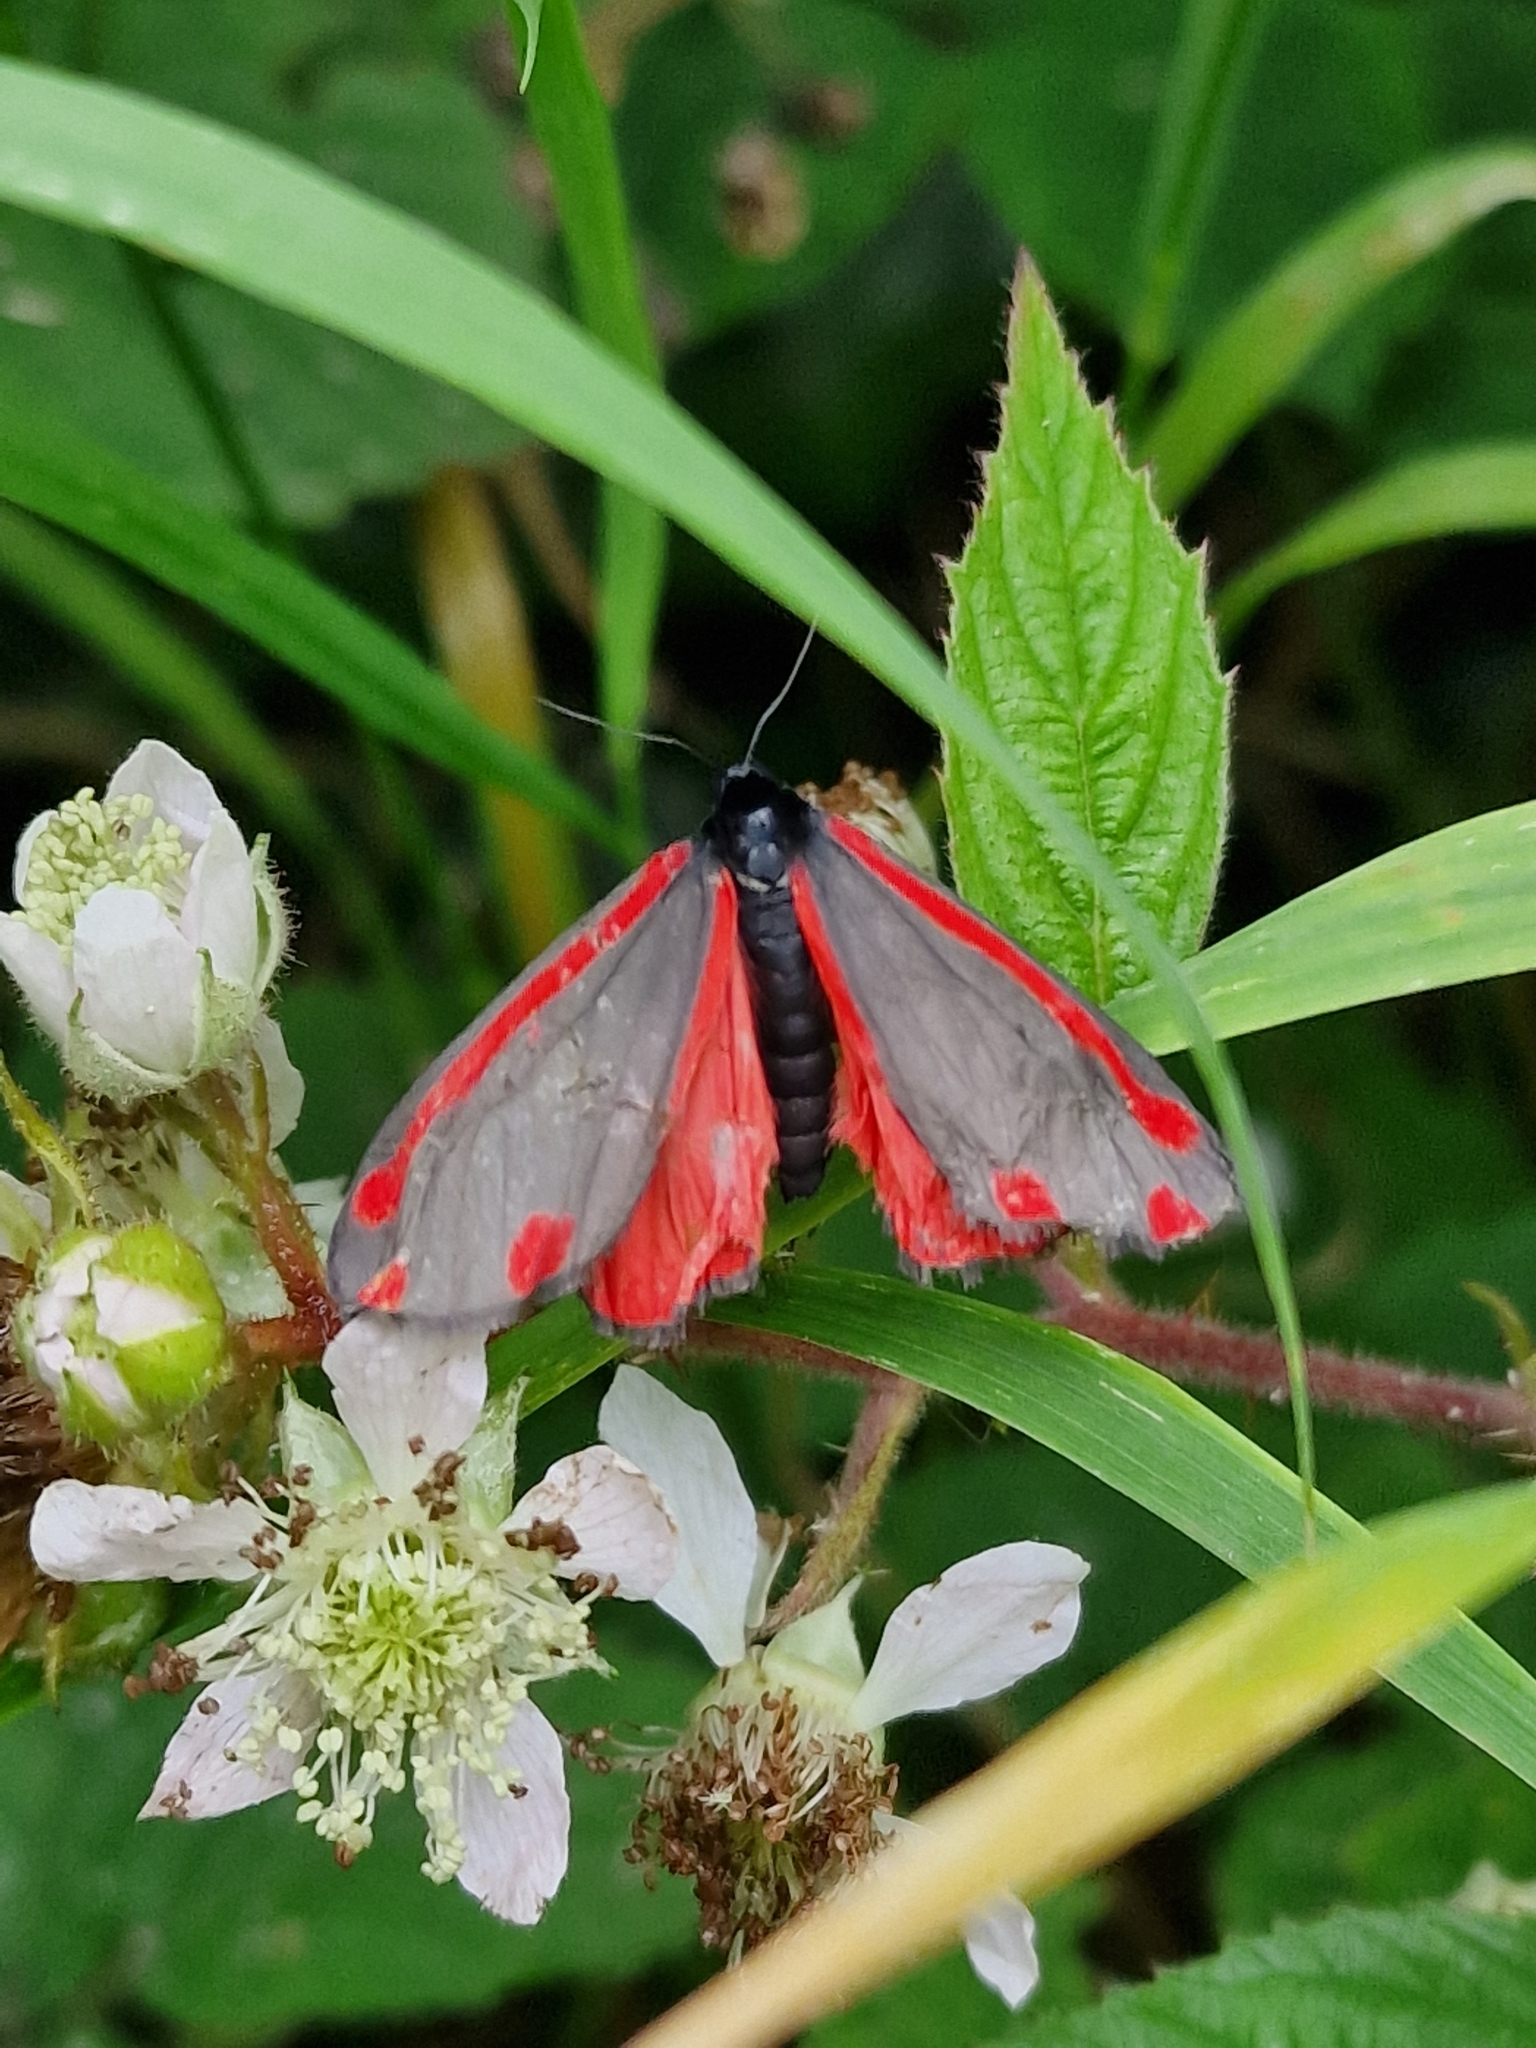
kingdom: Animalia
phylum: Arthropoda
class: Insecta
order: Lepidoptera
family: Erebidae
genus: Tyria
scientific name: Tyria jacobaeae
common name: Cinnabar
